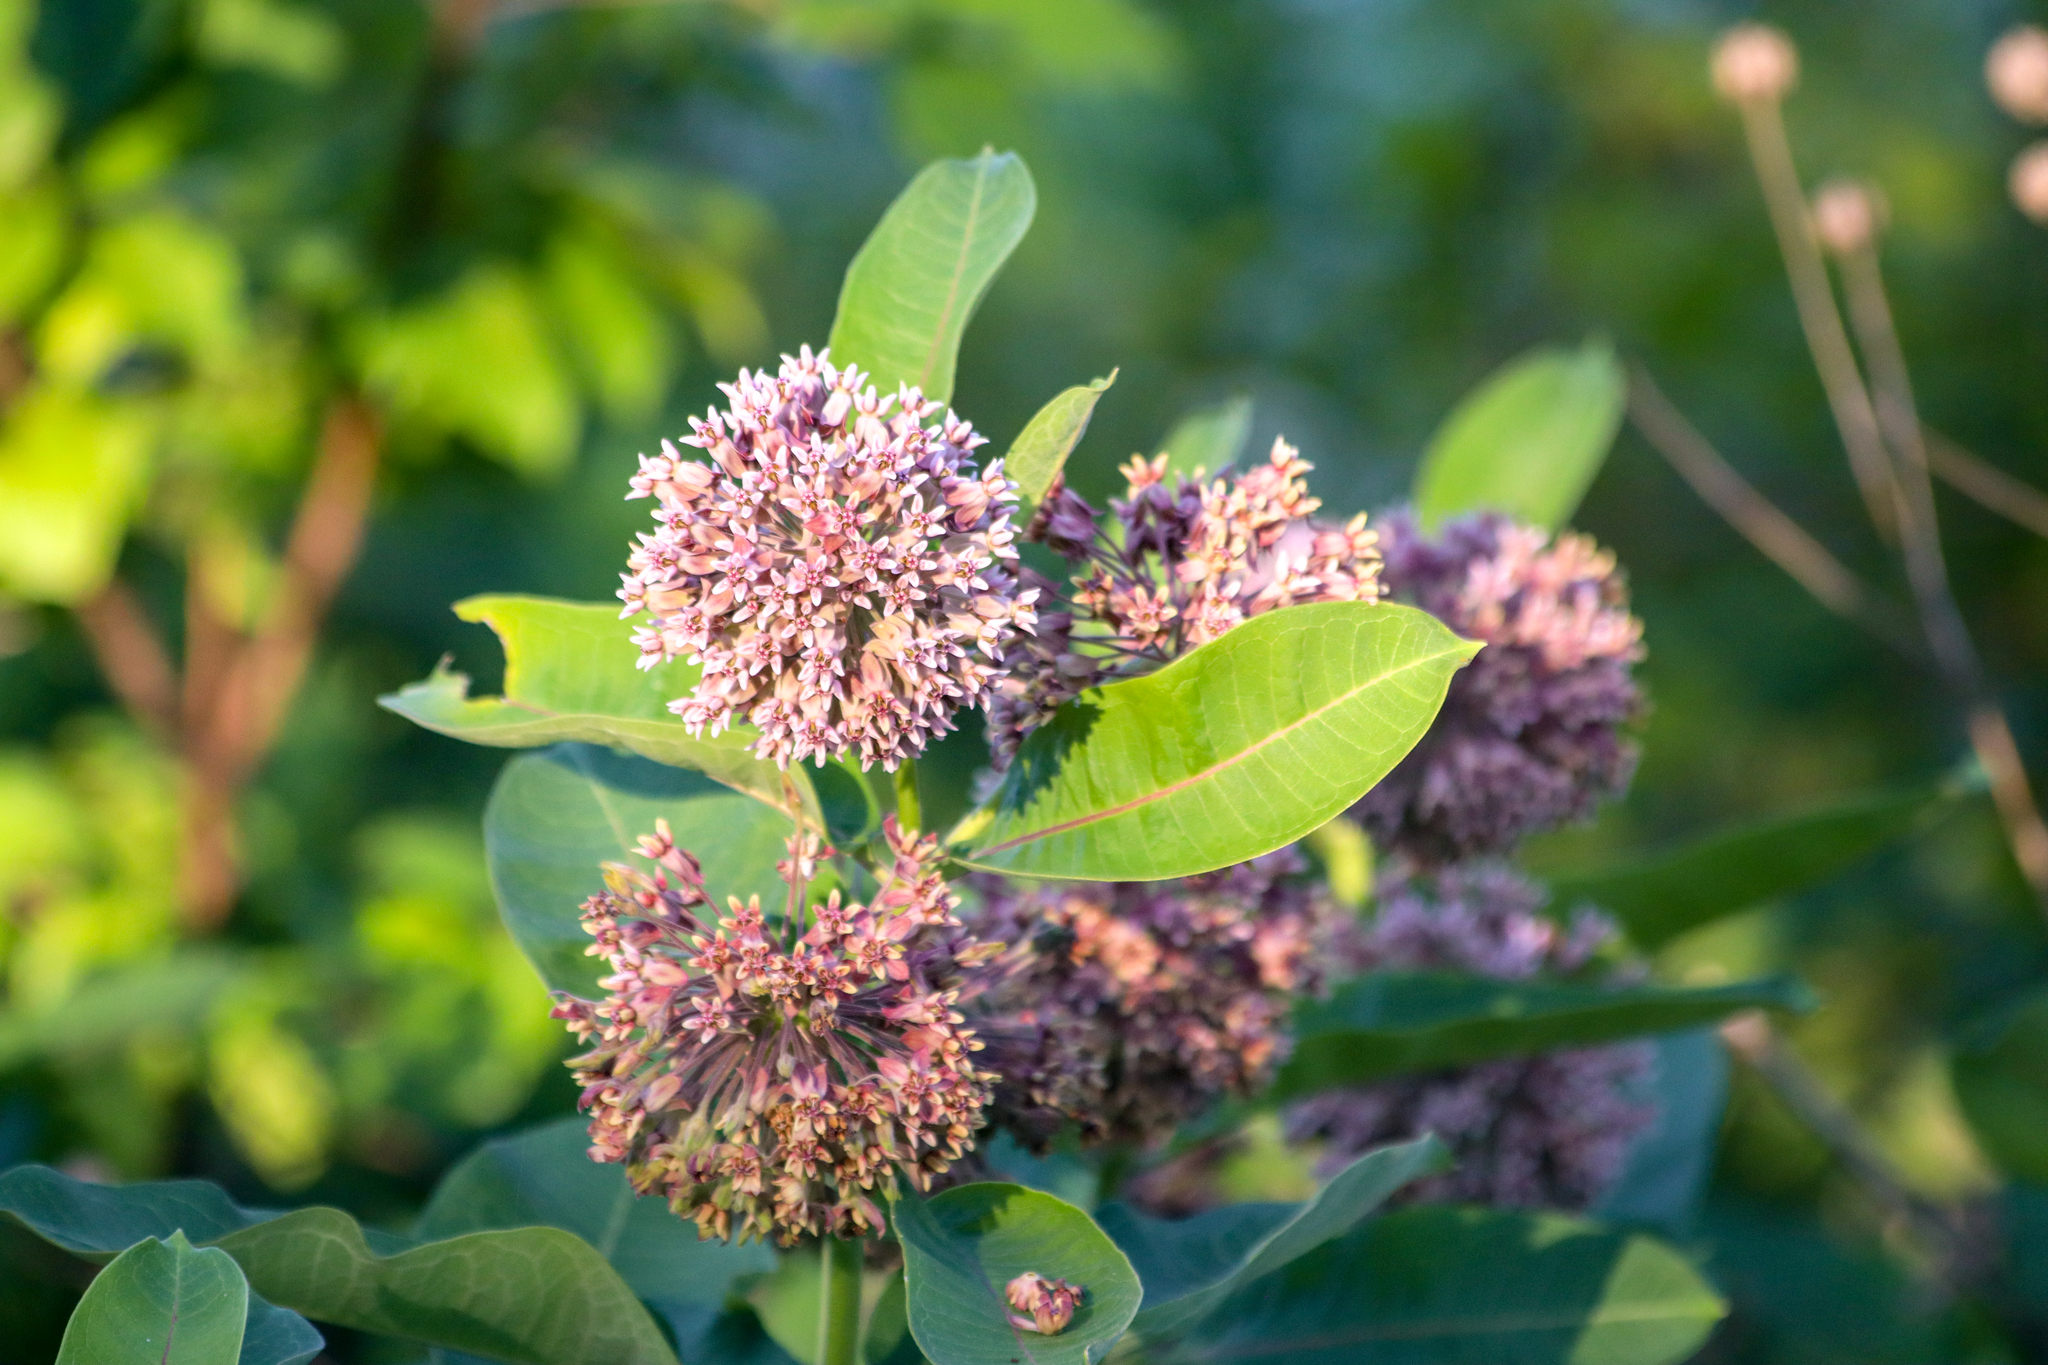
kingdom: Plantae
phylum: Tracheophyta
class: Magnoliopsida
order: Gentianales
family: Apocynaceae
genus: Asclepias
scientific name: Asclepias syriaca
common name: Common milkweed
